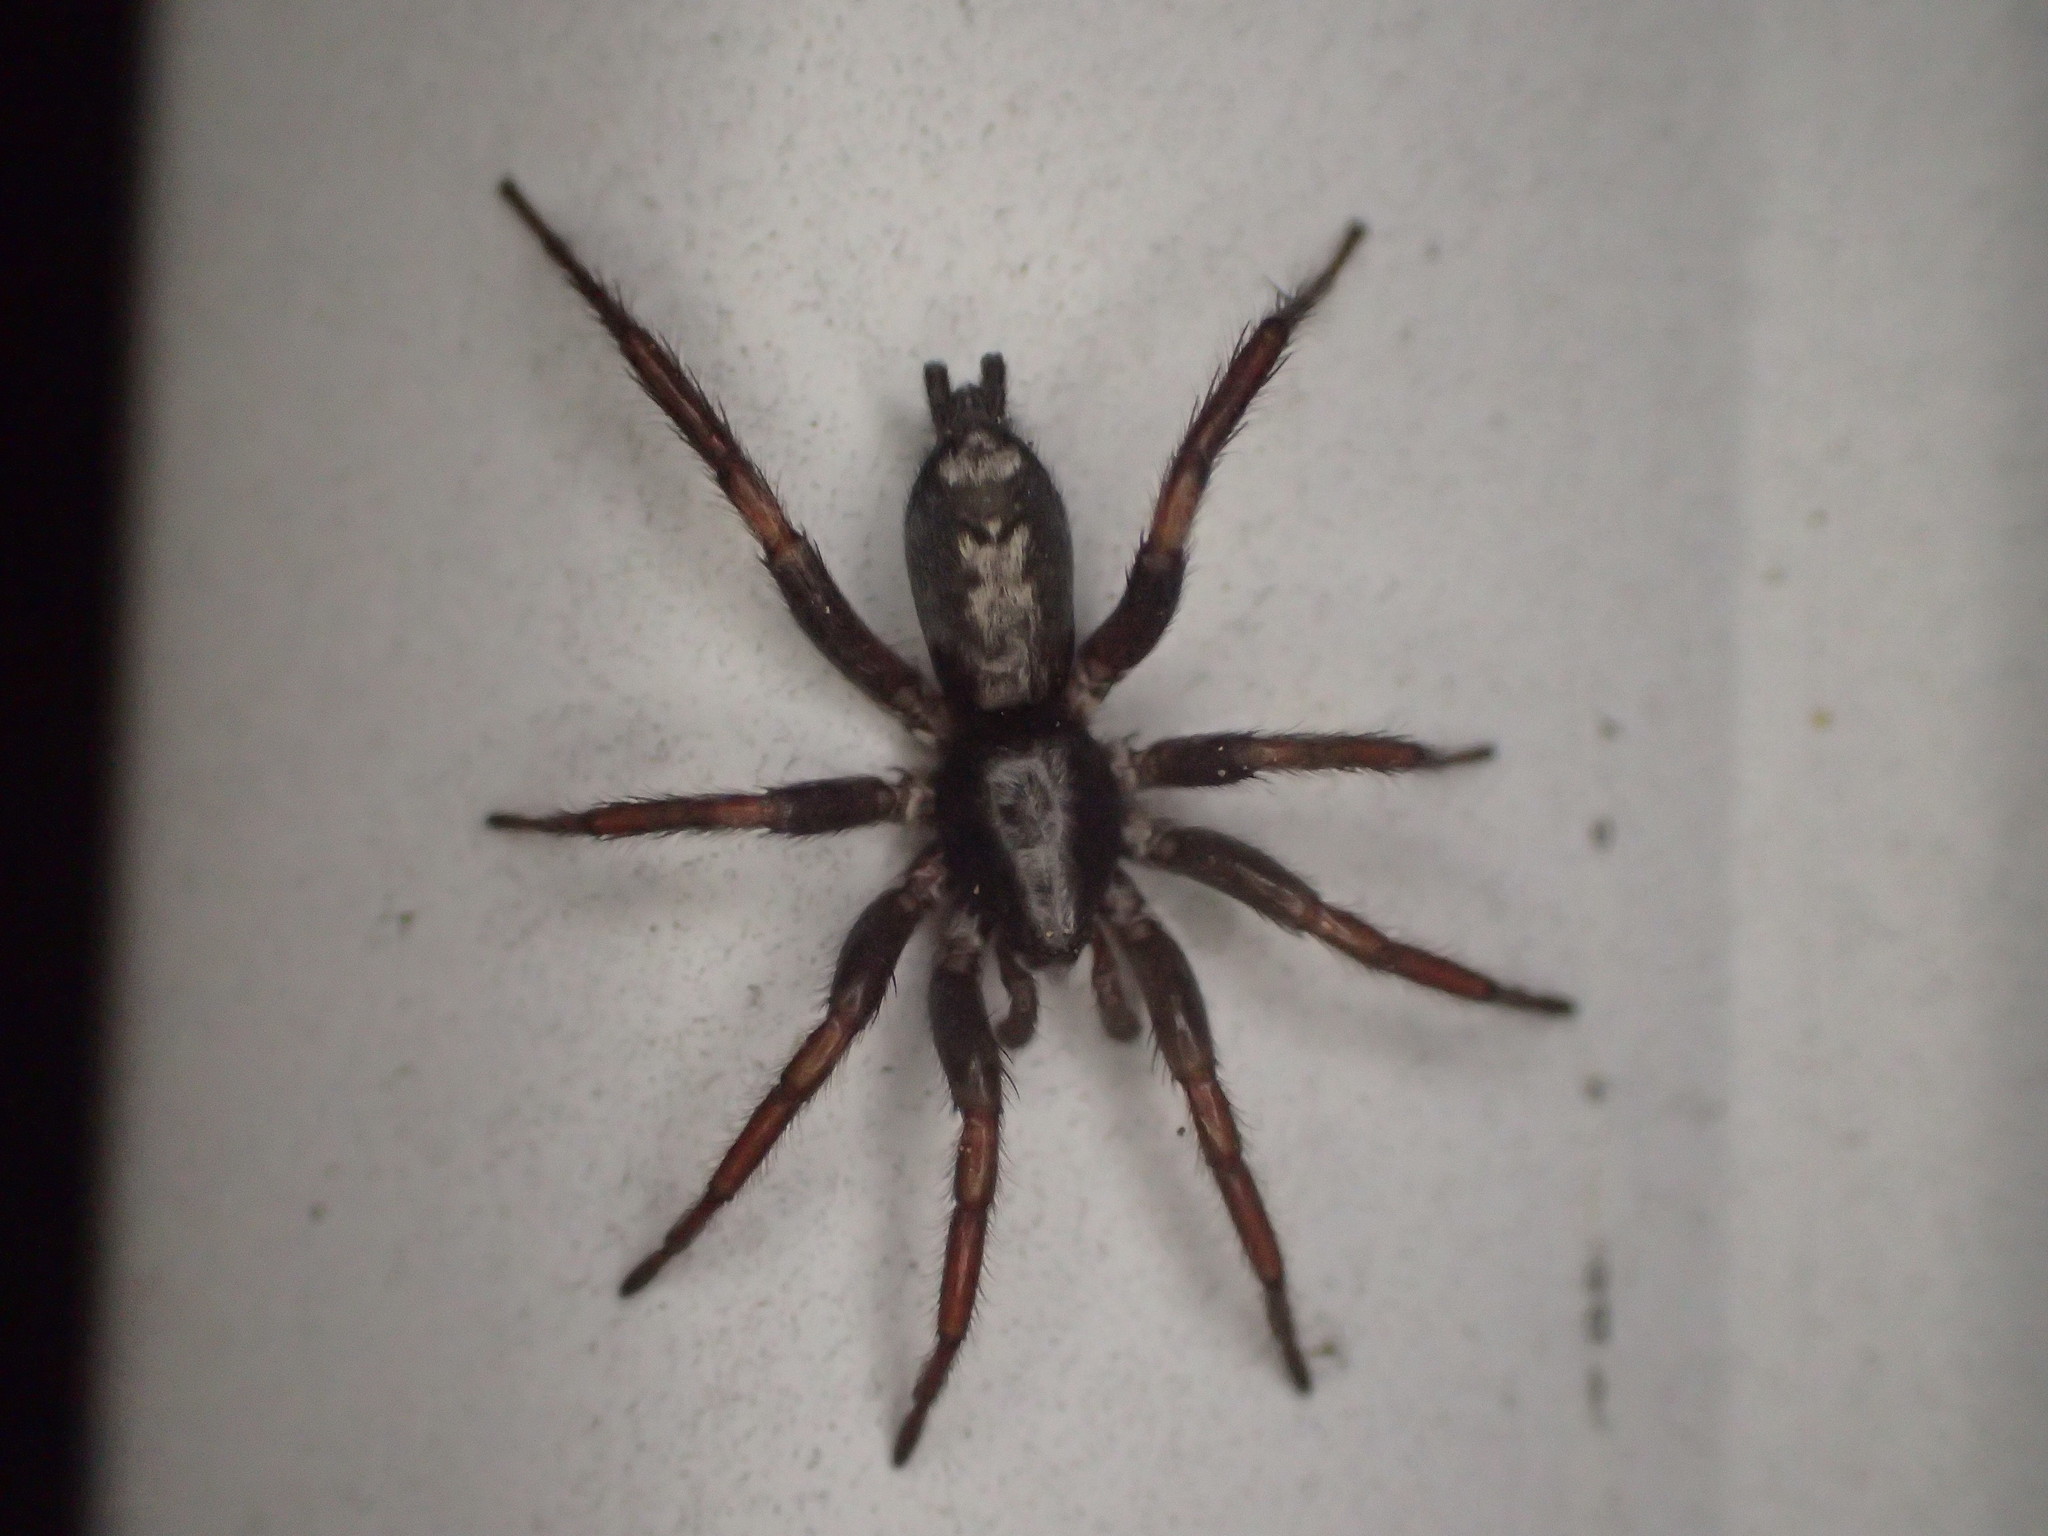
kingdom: Animalia
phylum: Arthropoda
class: Arachnida
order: Araneae
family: Gnaphosidae
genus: Herpyllus
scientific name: Herpyllus ecclesiasticus
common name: Eastern parson spider
